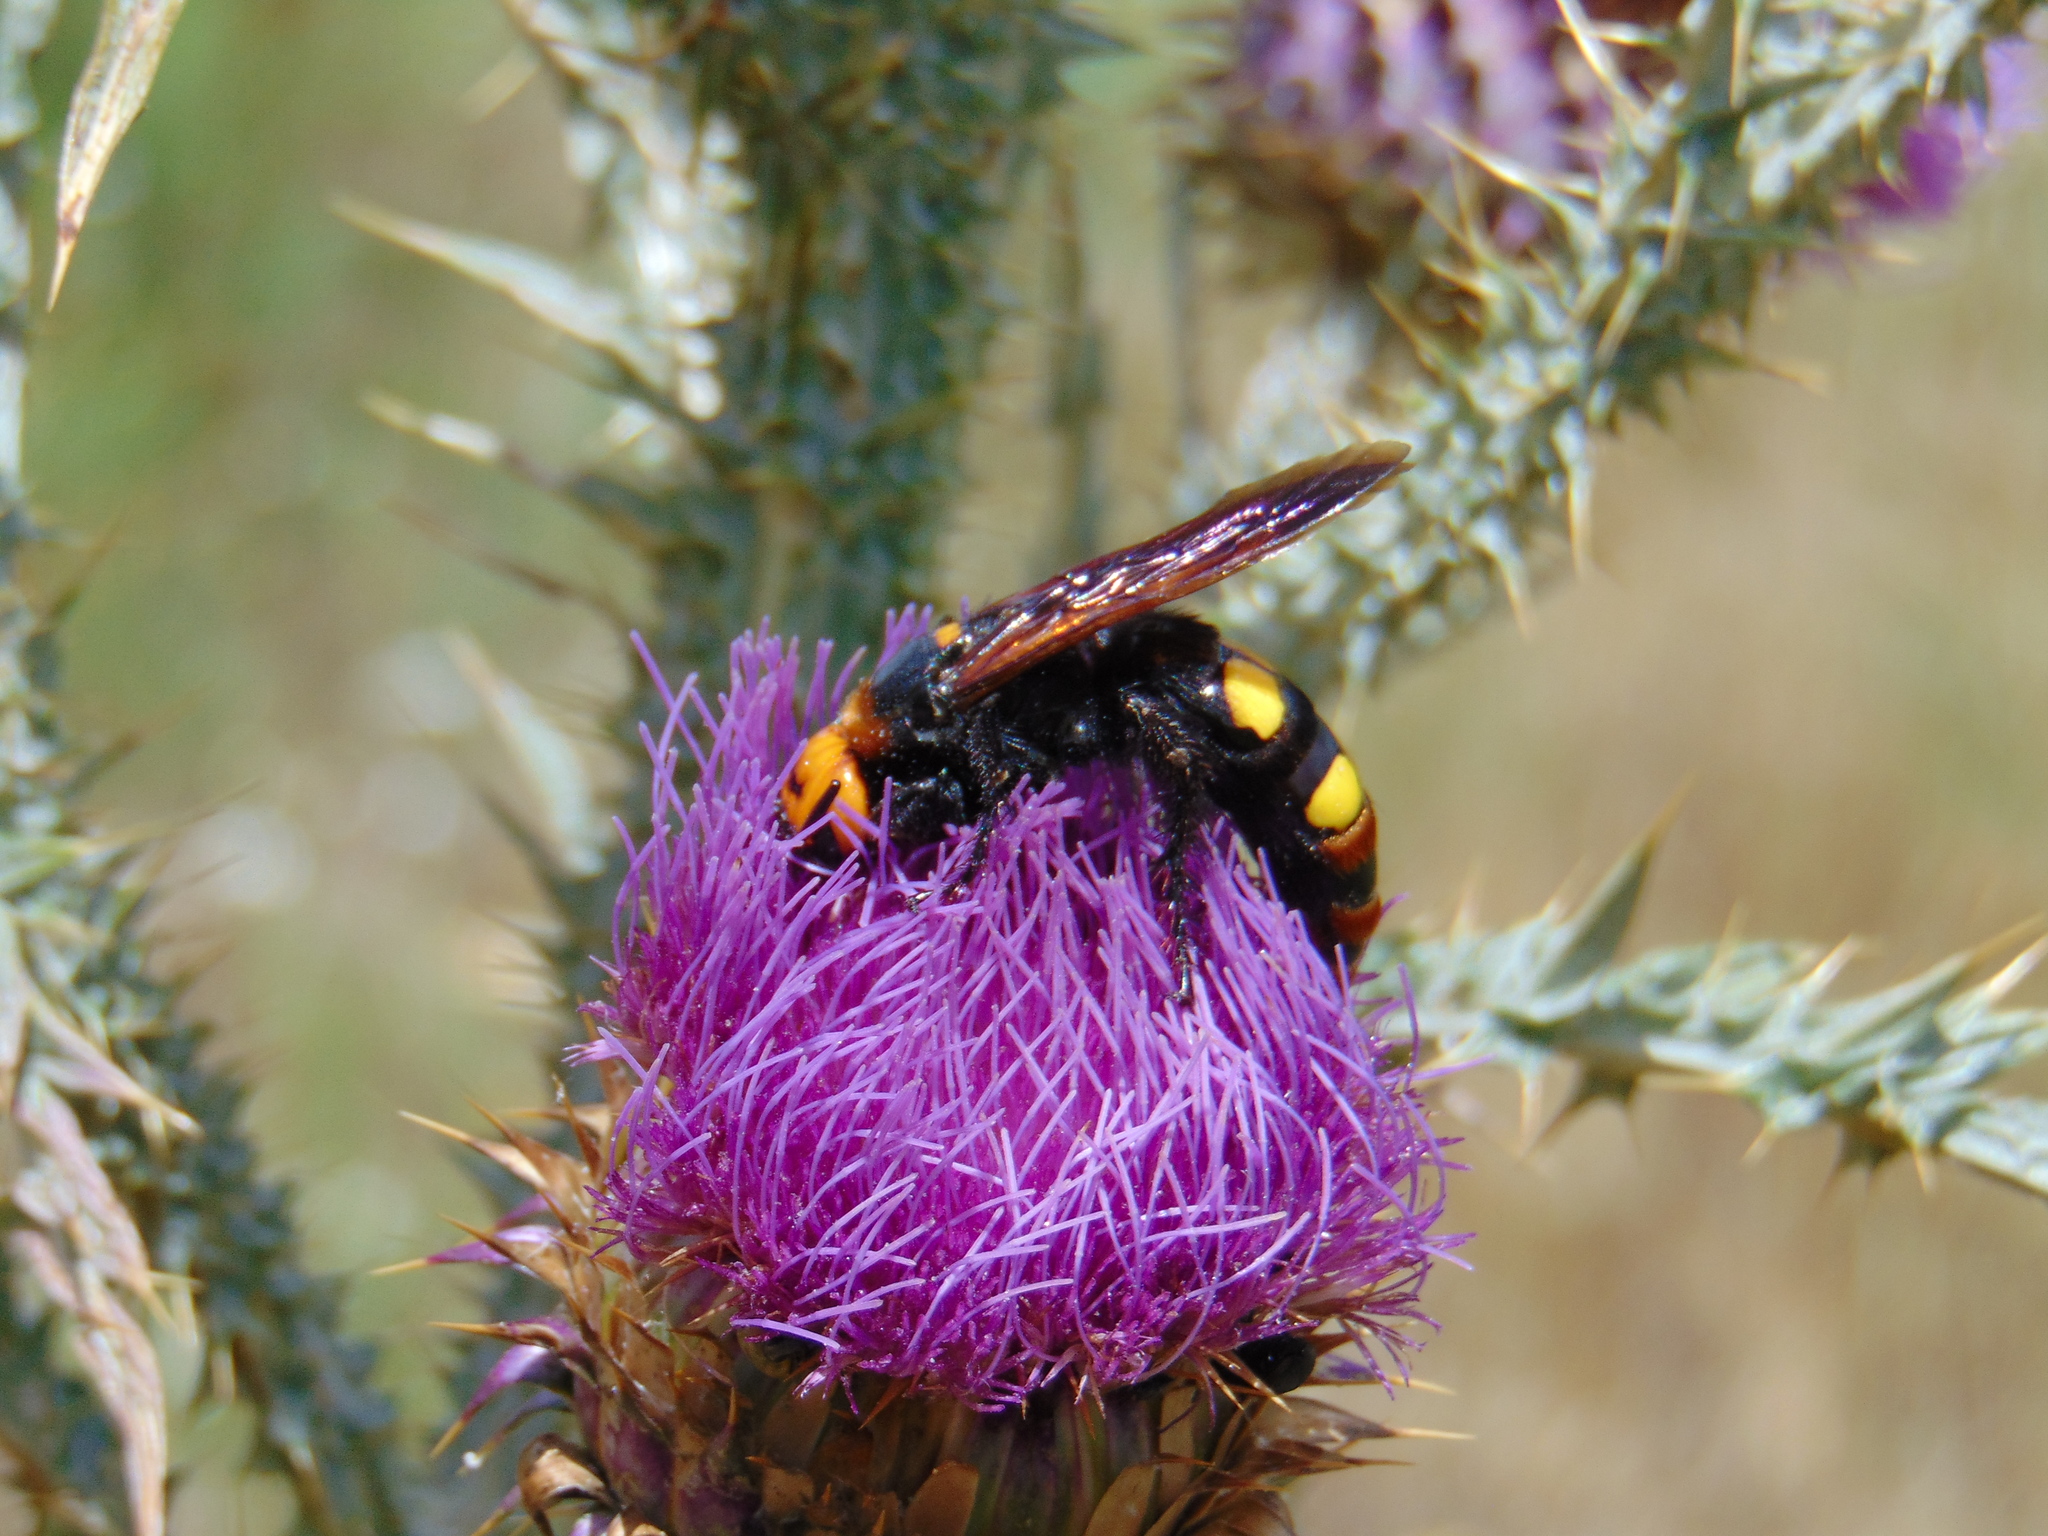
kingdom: Animalia
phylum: Arthropoda
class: Insecta
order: Hymenoptera
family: Scoliidae
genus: Megascolia
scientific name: Megascolia maculata
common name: Mammoth wasp
